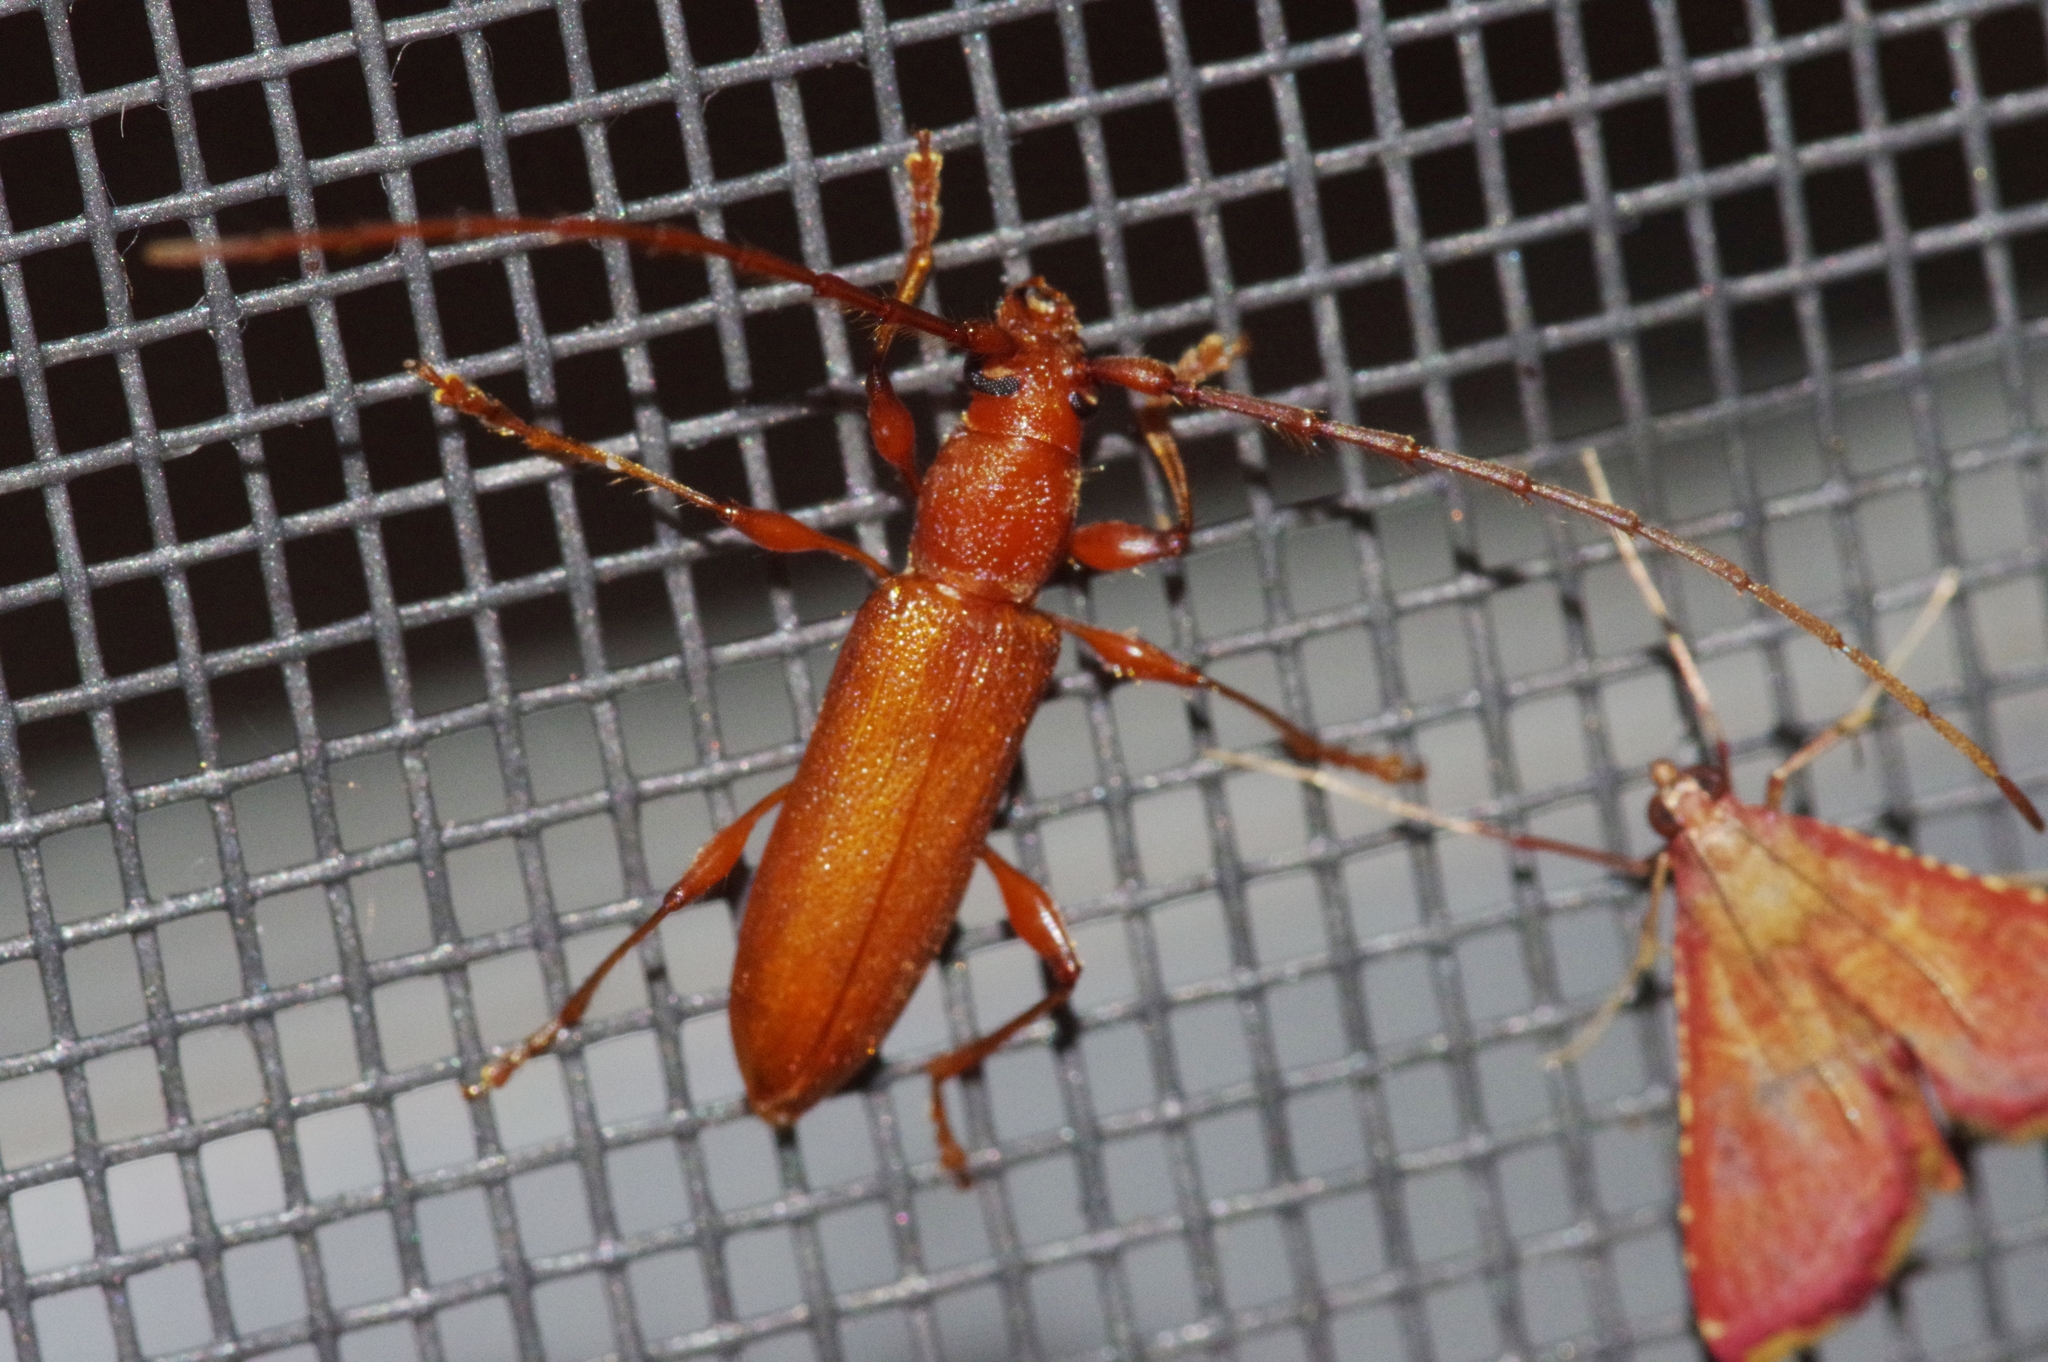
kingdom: Animalia
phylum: Arthropoda
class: Insecta
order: Coleoptera
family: Cerambycidae
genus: Nysina
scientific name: Nysina insularis
